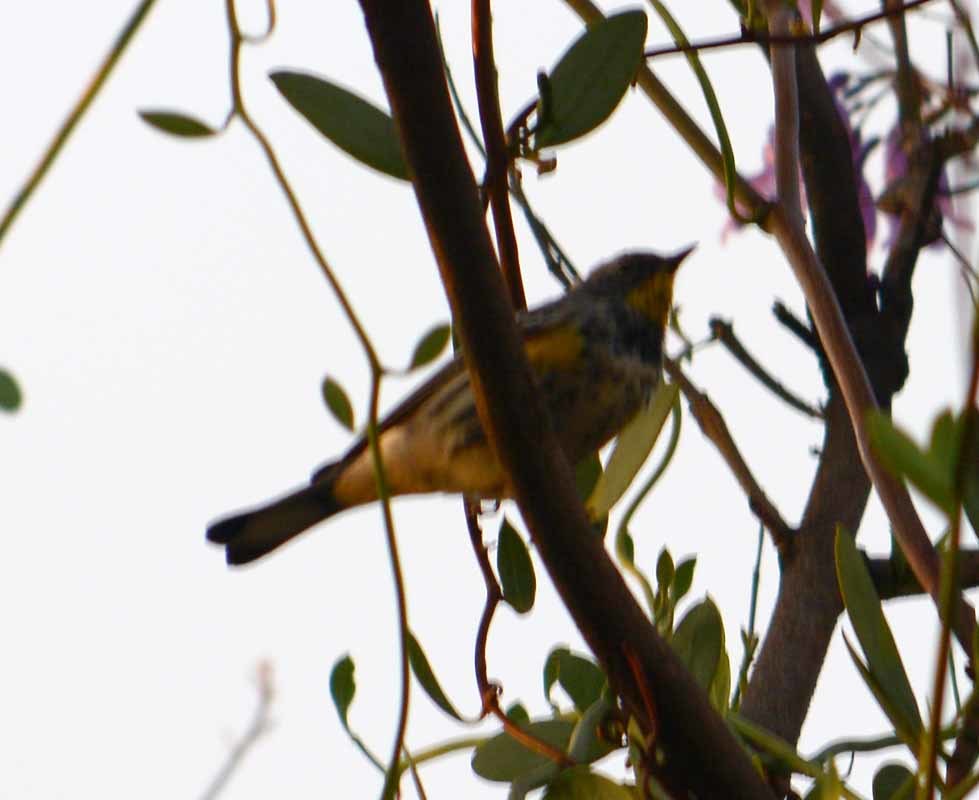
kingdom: Animalia
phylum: Chordata
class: Aves
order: Passeriformes
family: Parulidae
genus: Setophaga
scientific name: Setophaga auduboni
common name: Audubon's warbler
